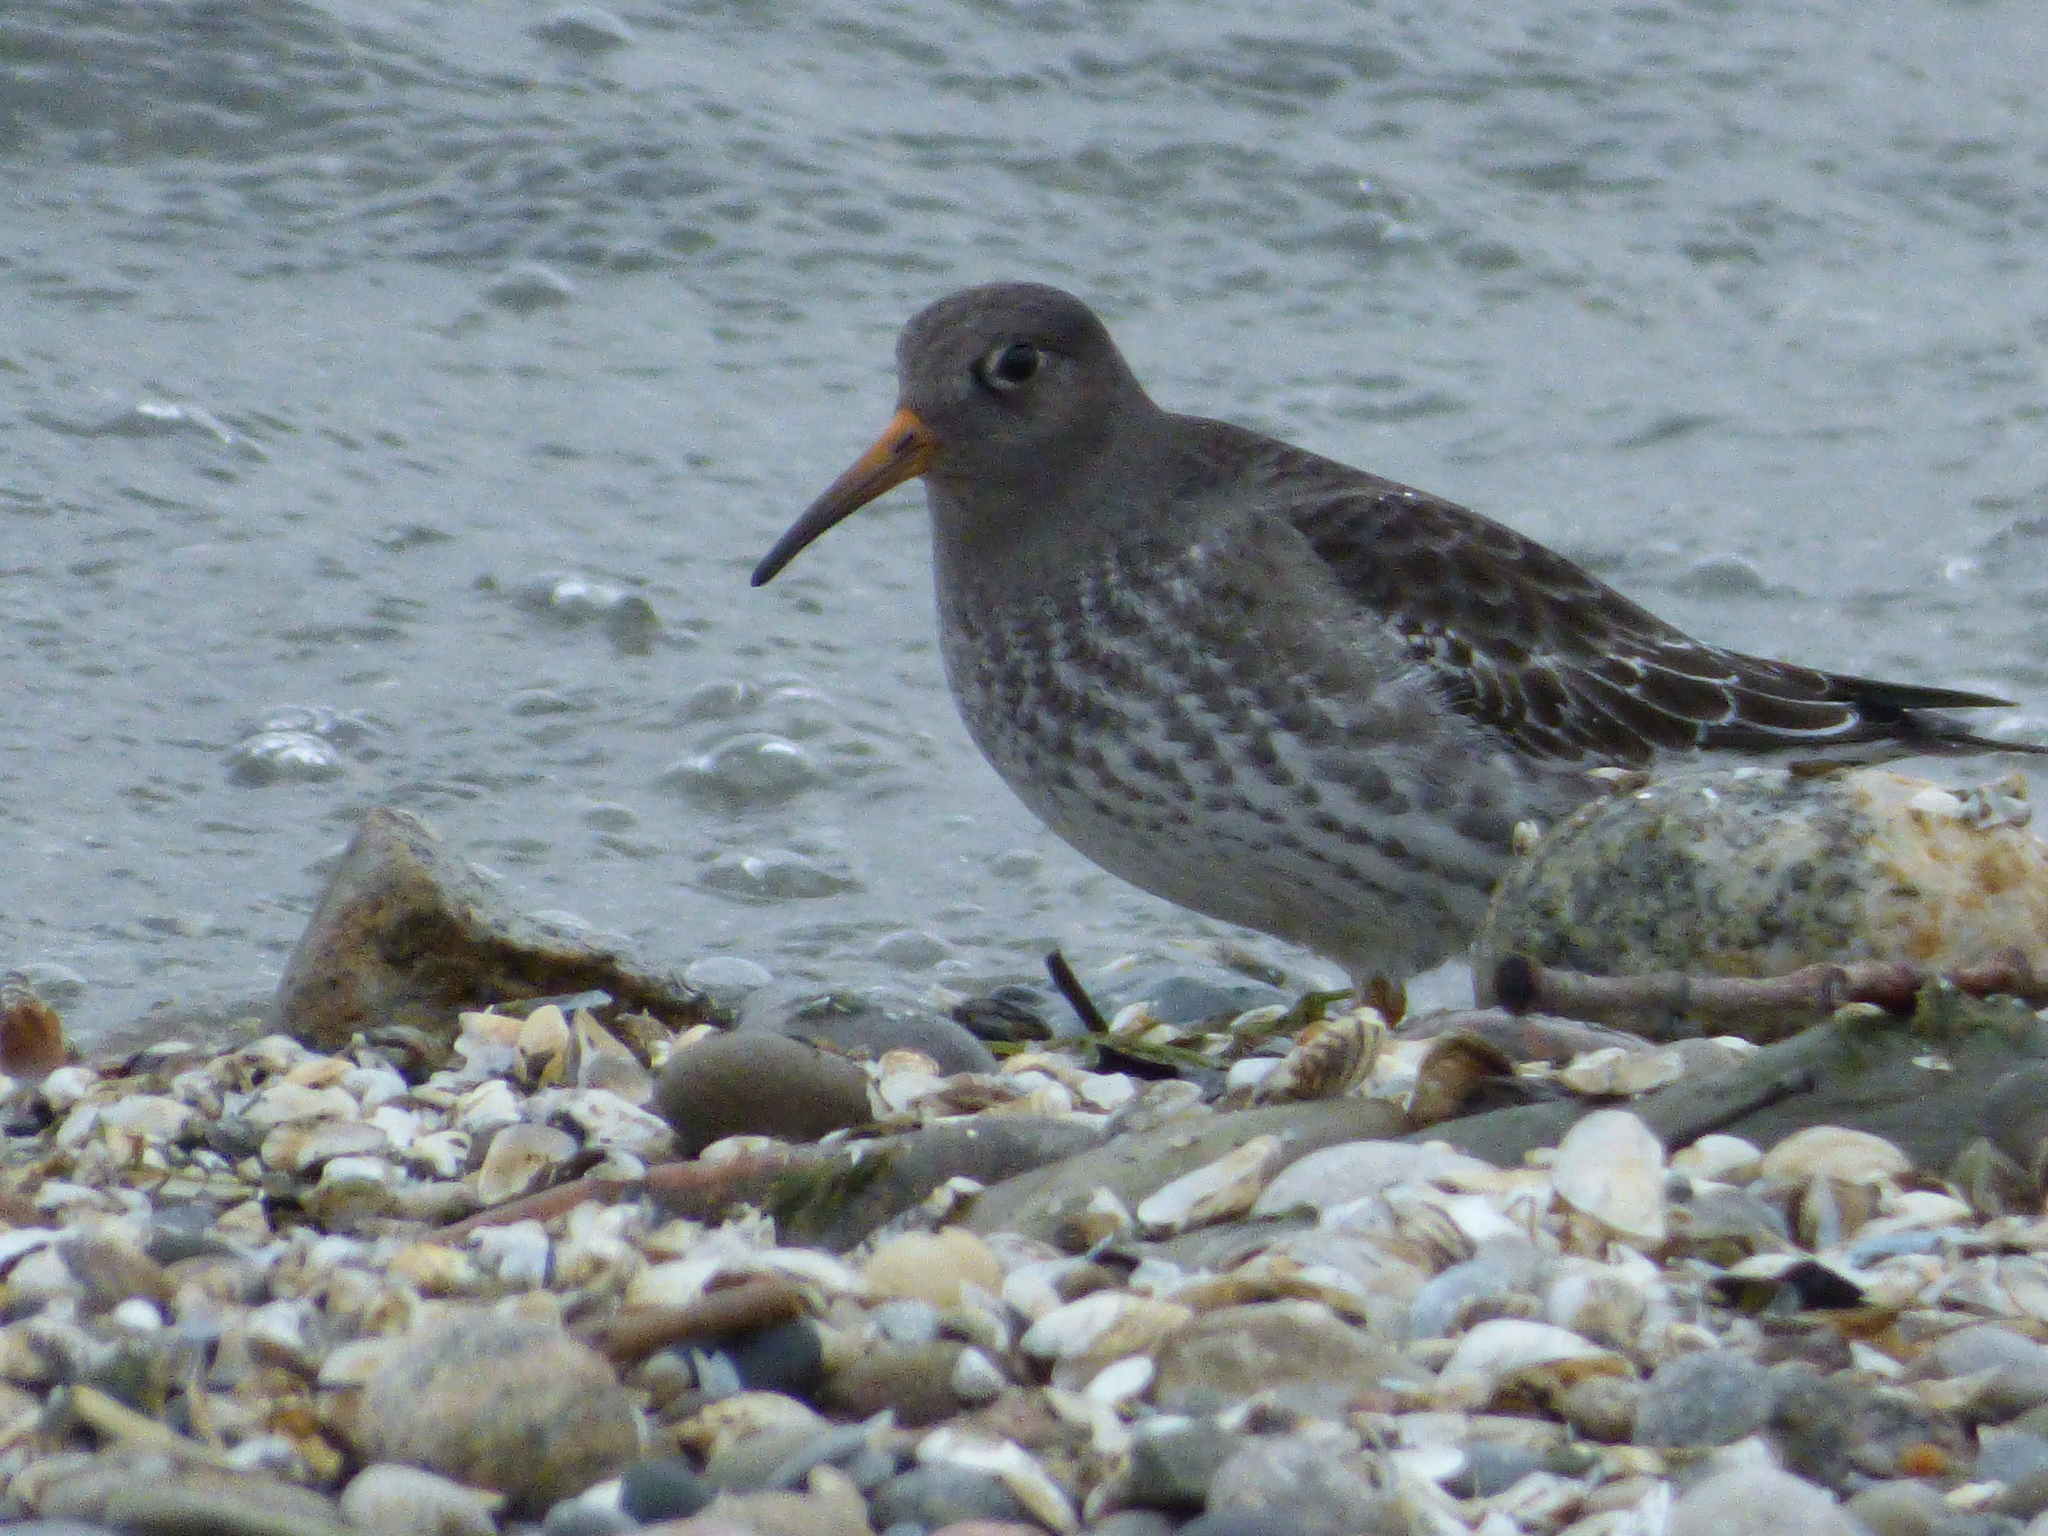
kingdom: Animalia
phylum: Chordata
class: Aves
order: Charadriiformes
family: Scolopacidae
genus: Calidris
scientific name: Calidris maritima
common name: Purple sandpiper
